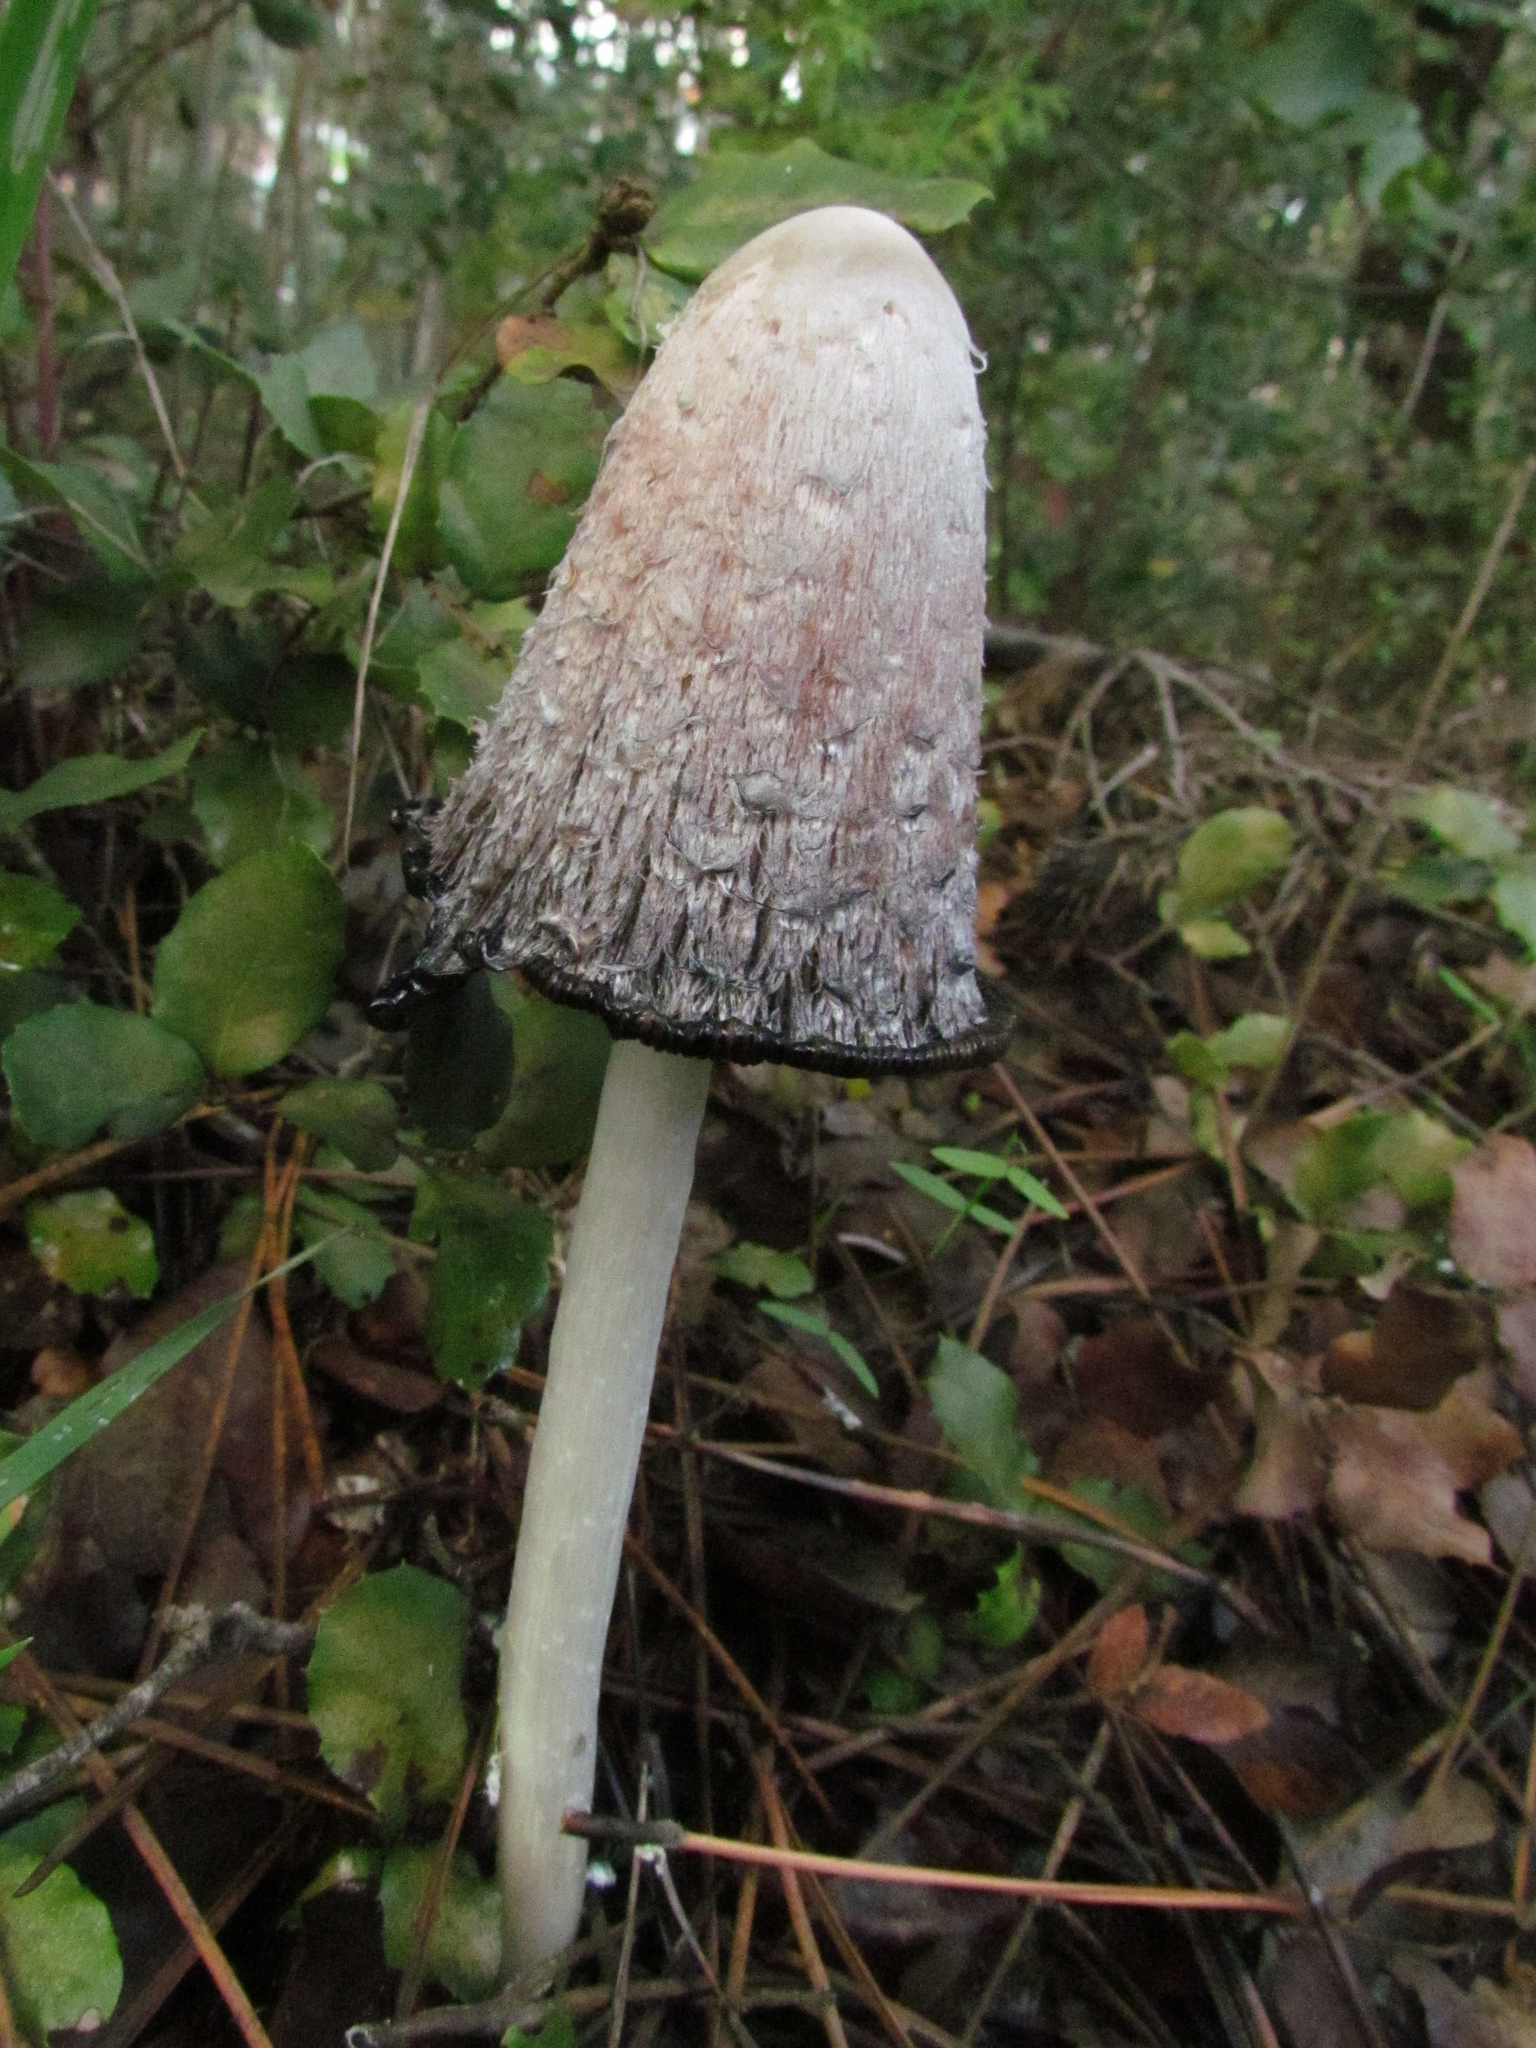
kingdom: Fungi
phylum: Basidiomycota
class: Agaricomycetes
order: Agaricales
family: Agaricaceae
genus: Coprinus
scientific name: Coprinus comatus
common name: Lawyer's wig
